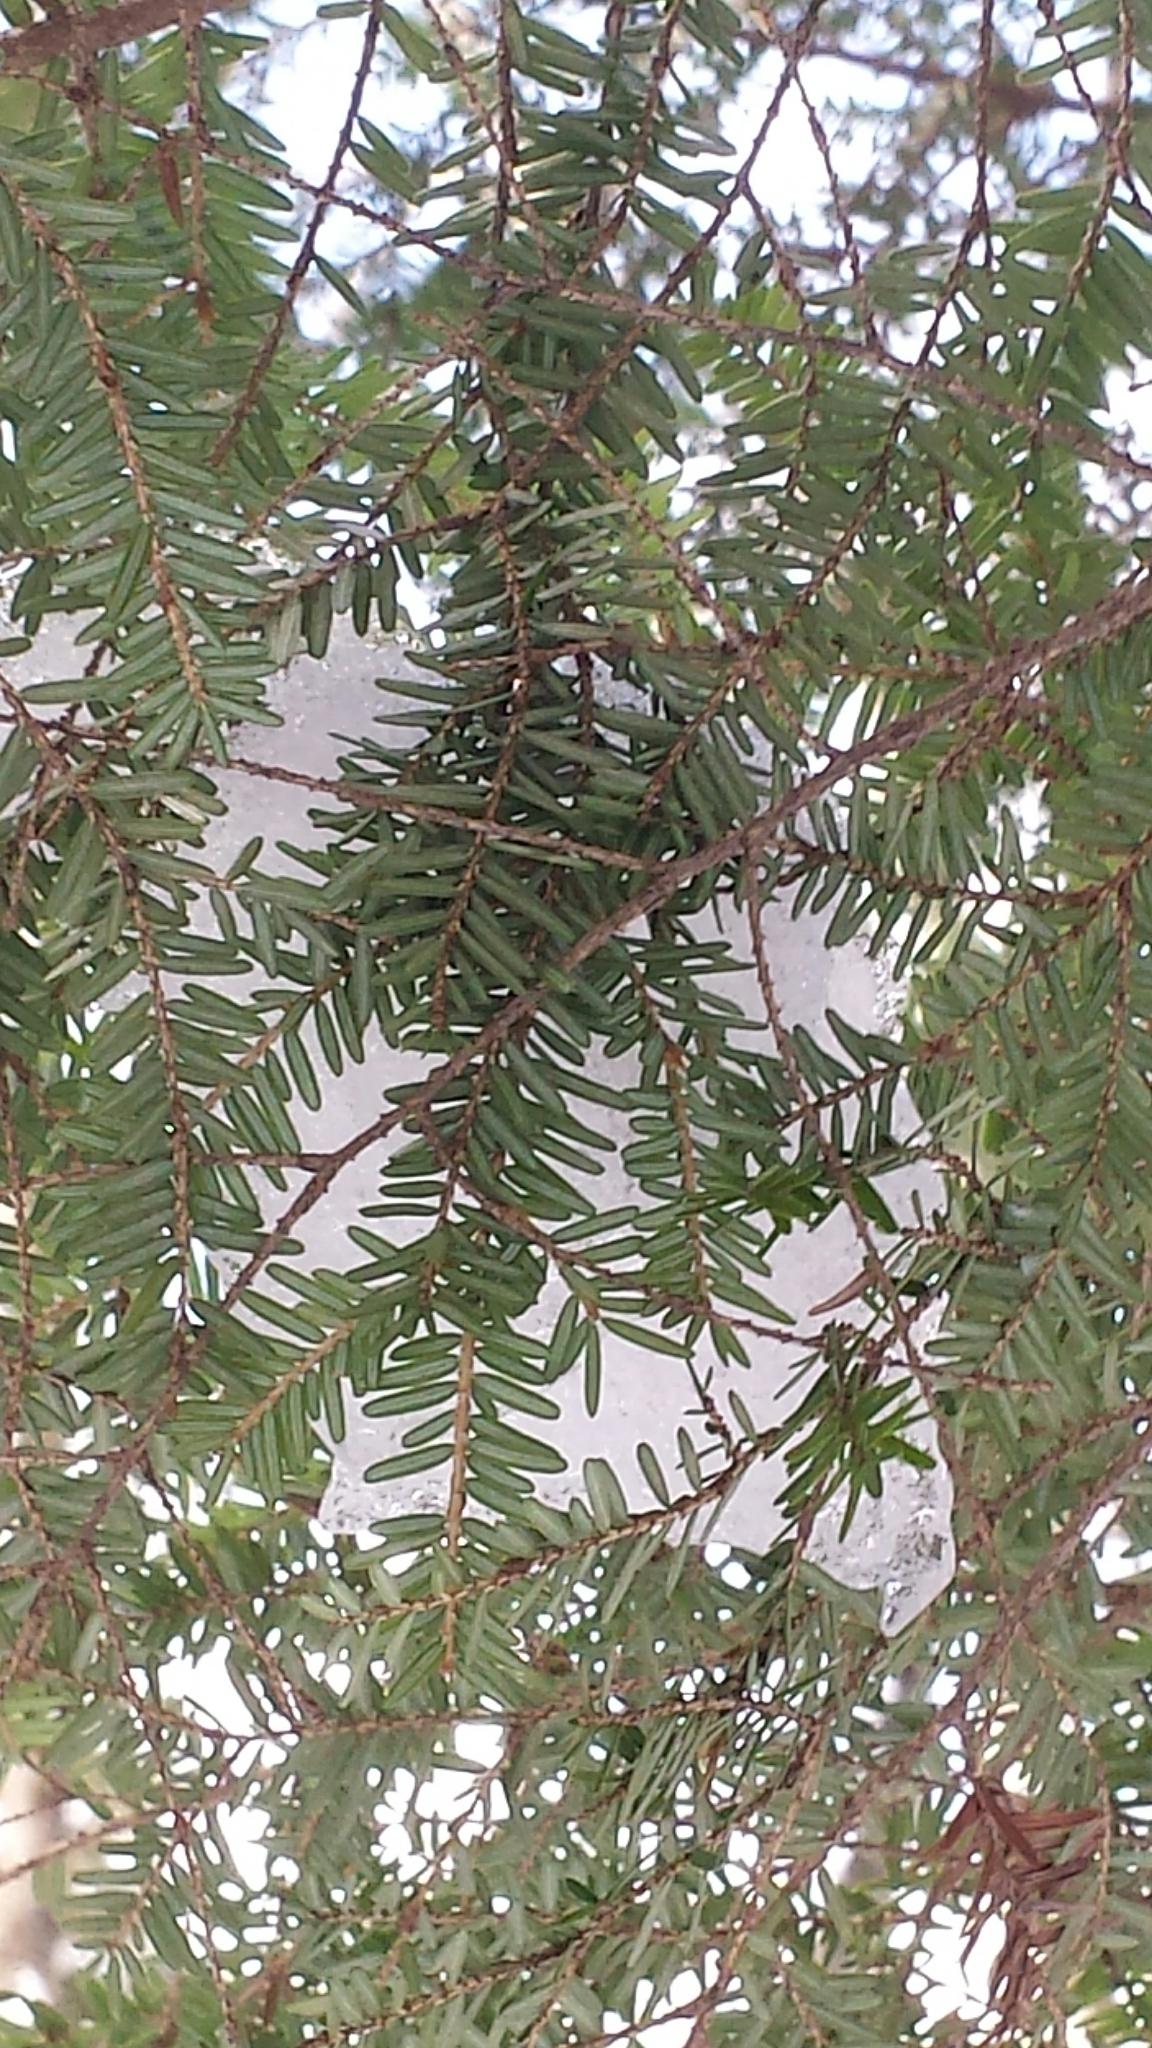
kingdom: Plantae
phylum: Tracheophyta
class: Pinopsida
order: Pinales
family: Pinaceae
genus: Tsuga
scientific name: Tsuga canadensis
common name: Eastern hemlock
